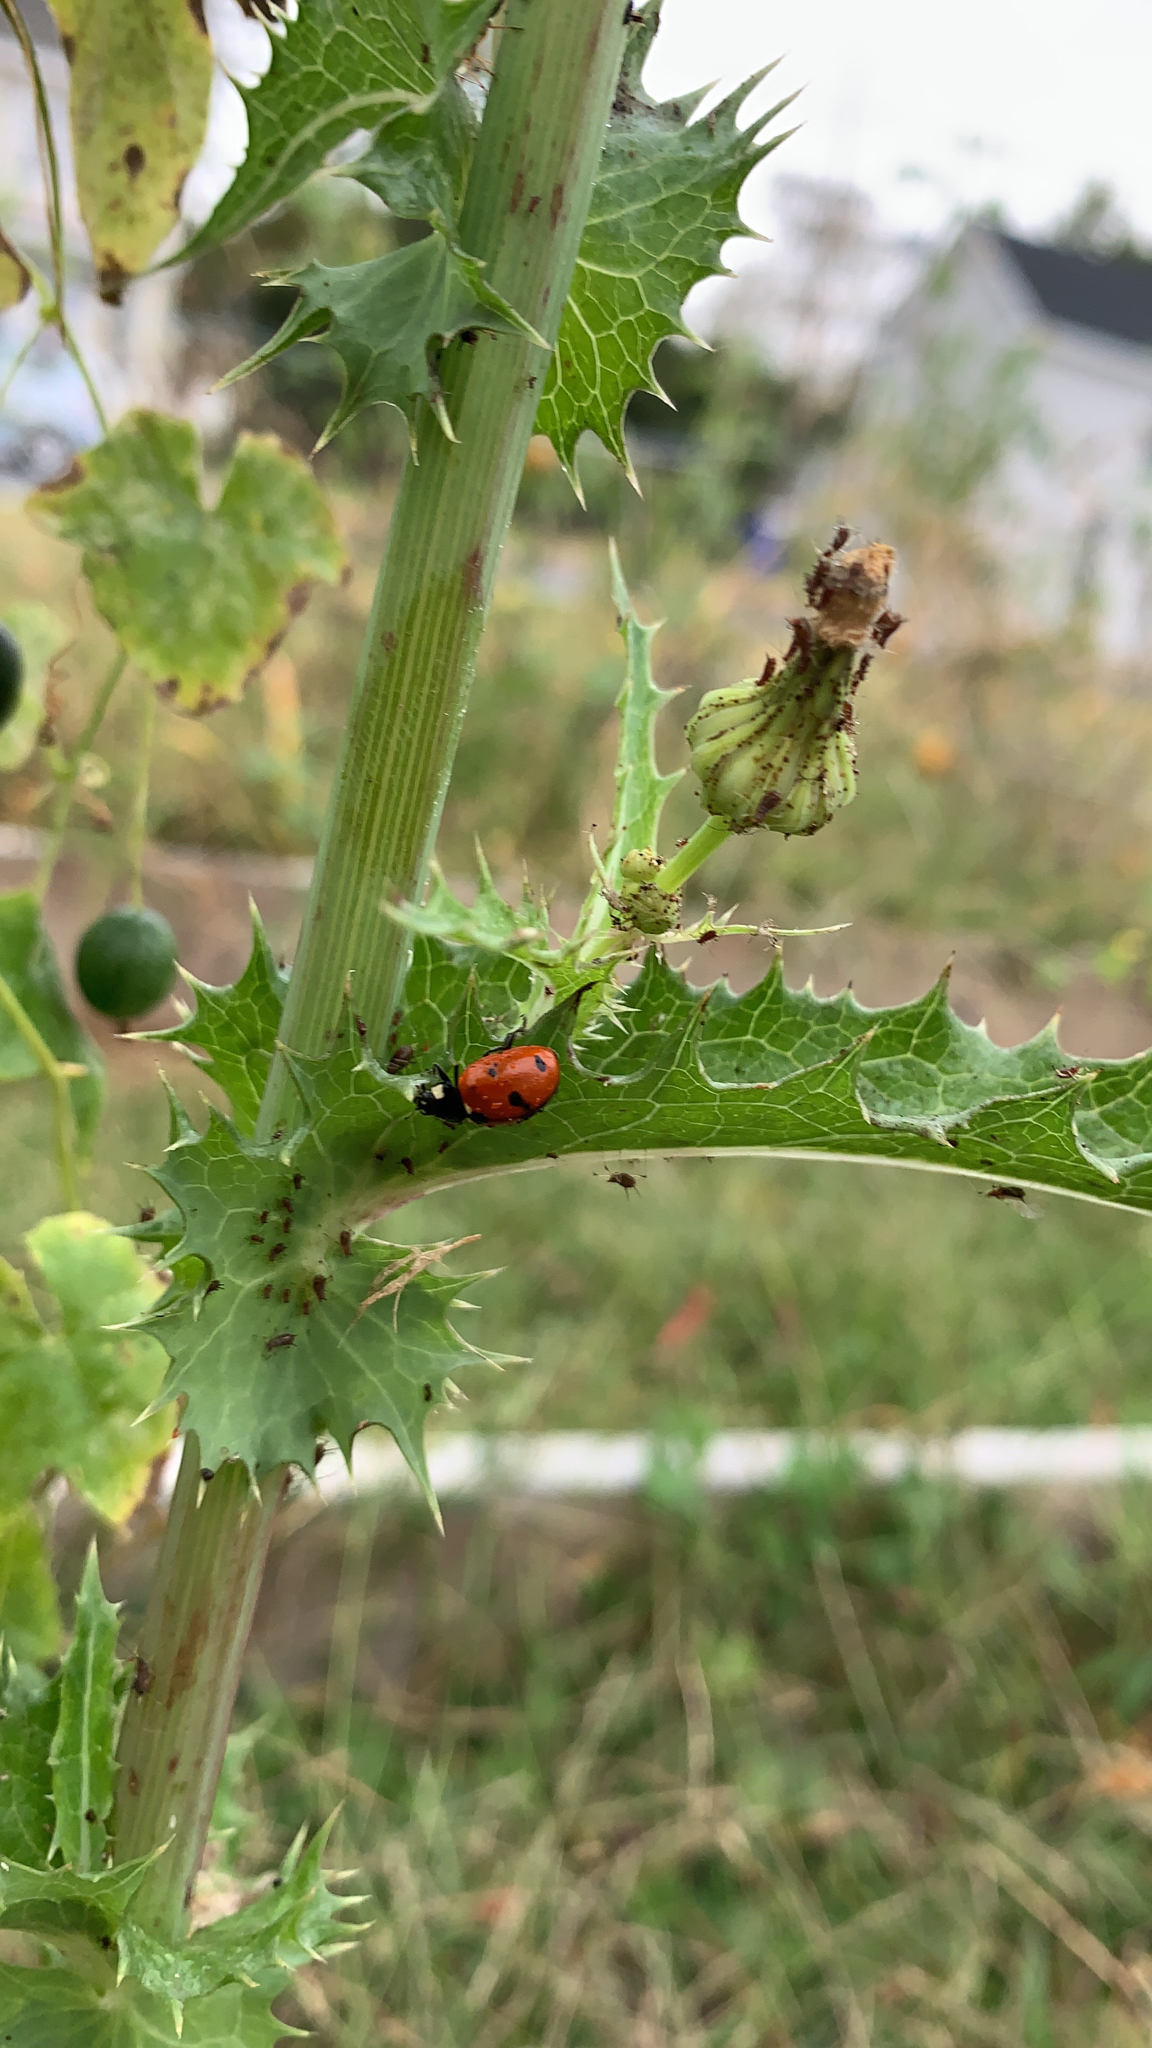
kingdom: Animalia
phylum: Arthropoda
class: Insecta
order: Coleoptera
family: Coccinellidae
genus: Coccinella
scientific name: Coccinella septempunctata
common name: Sevenspotted lady beetle
